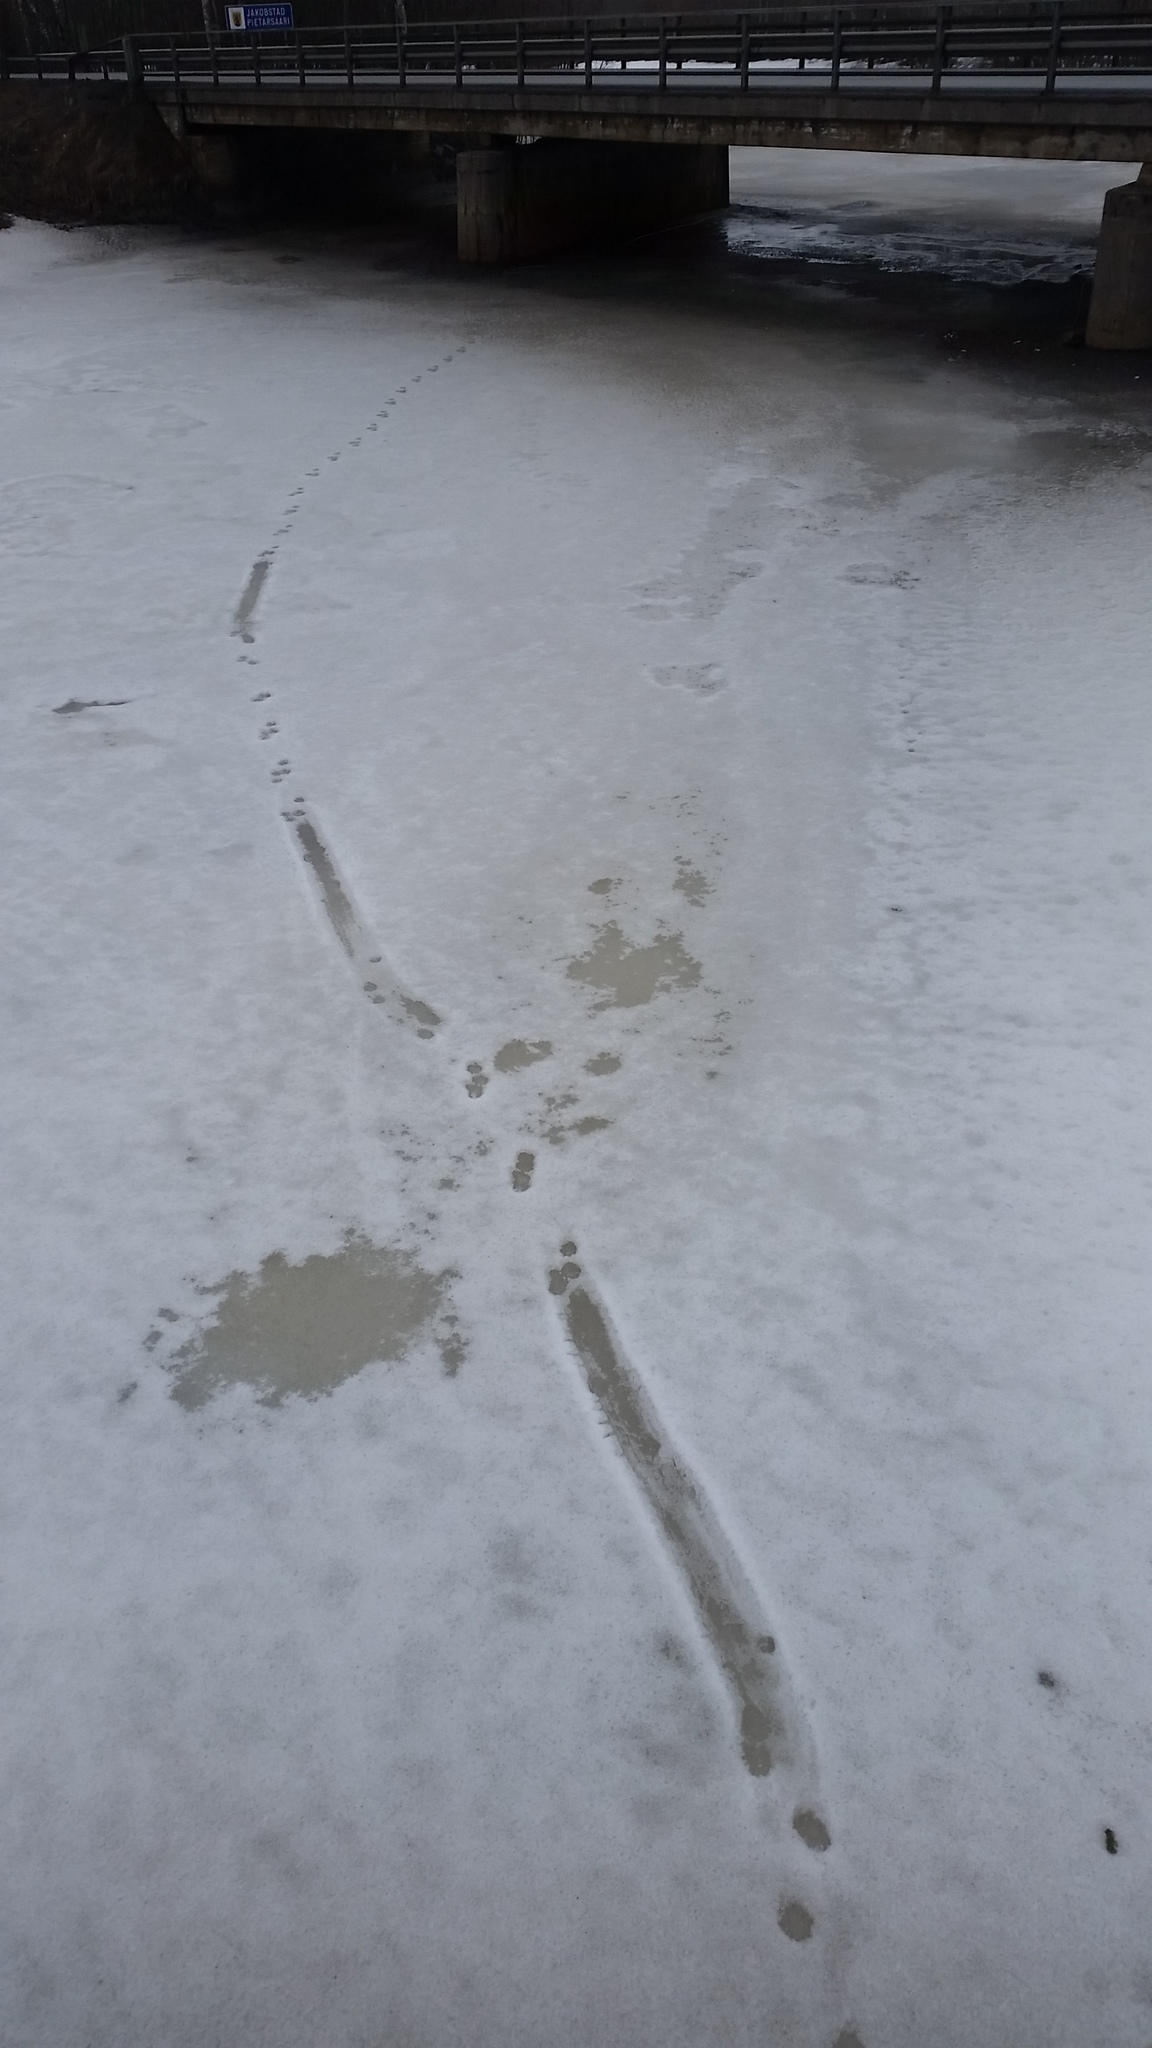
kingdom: Animalia
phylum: Chordata
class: Mammalia
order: Carnivora
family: Mustelidae
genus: Lutra
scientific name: Lutra lutra
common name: European otter
